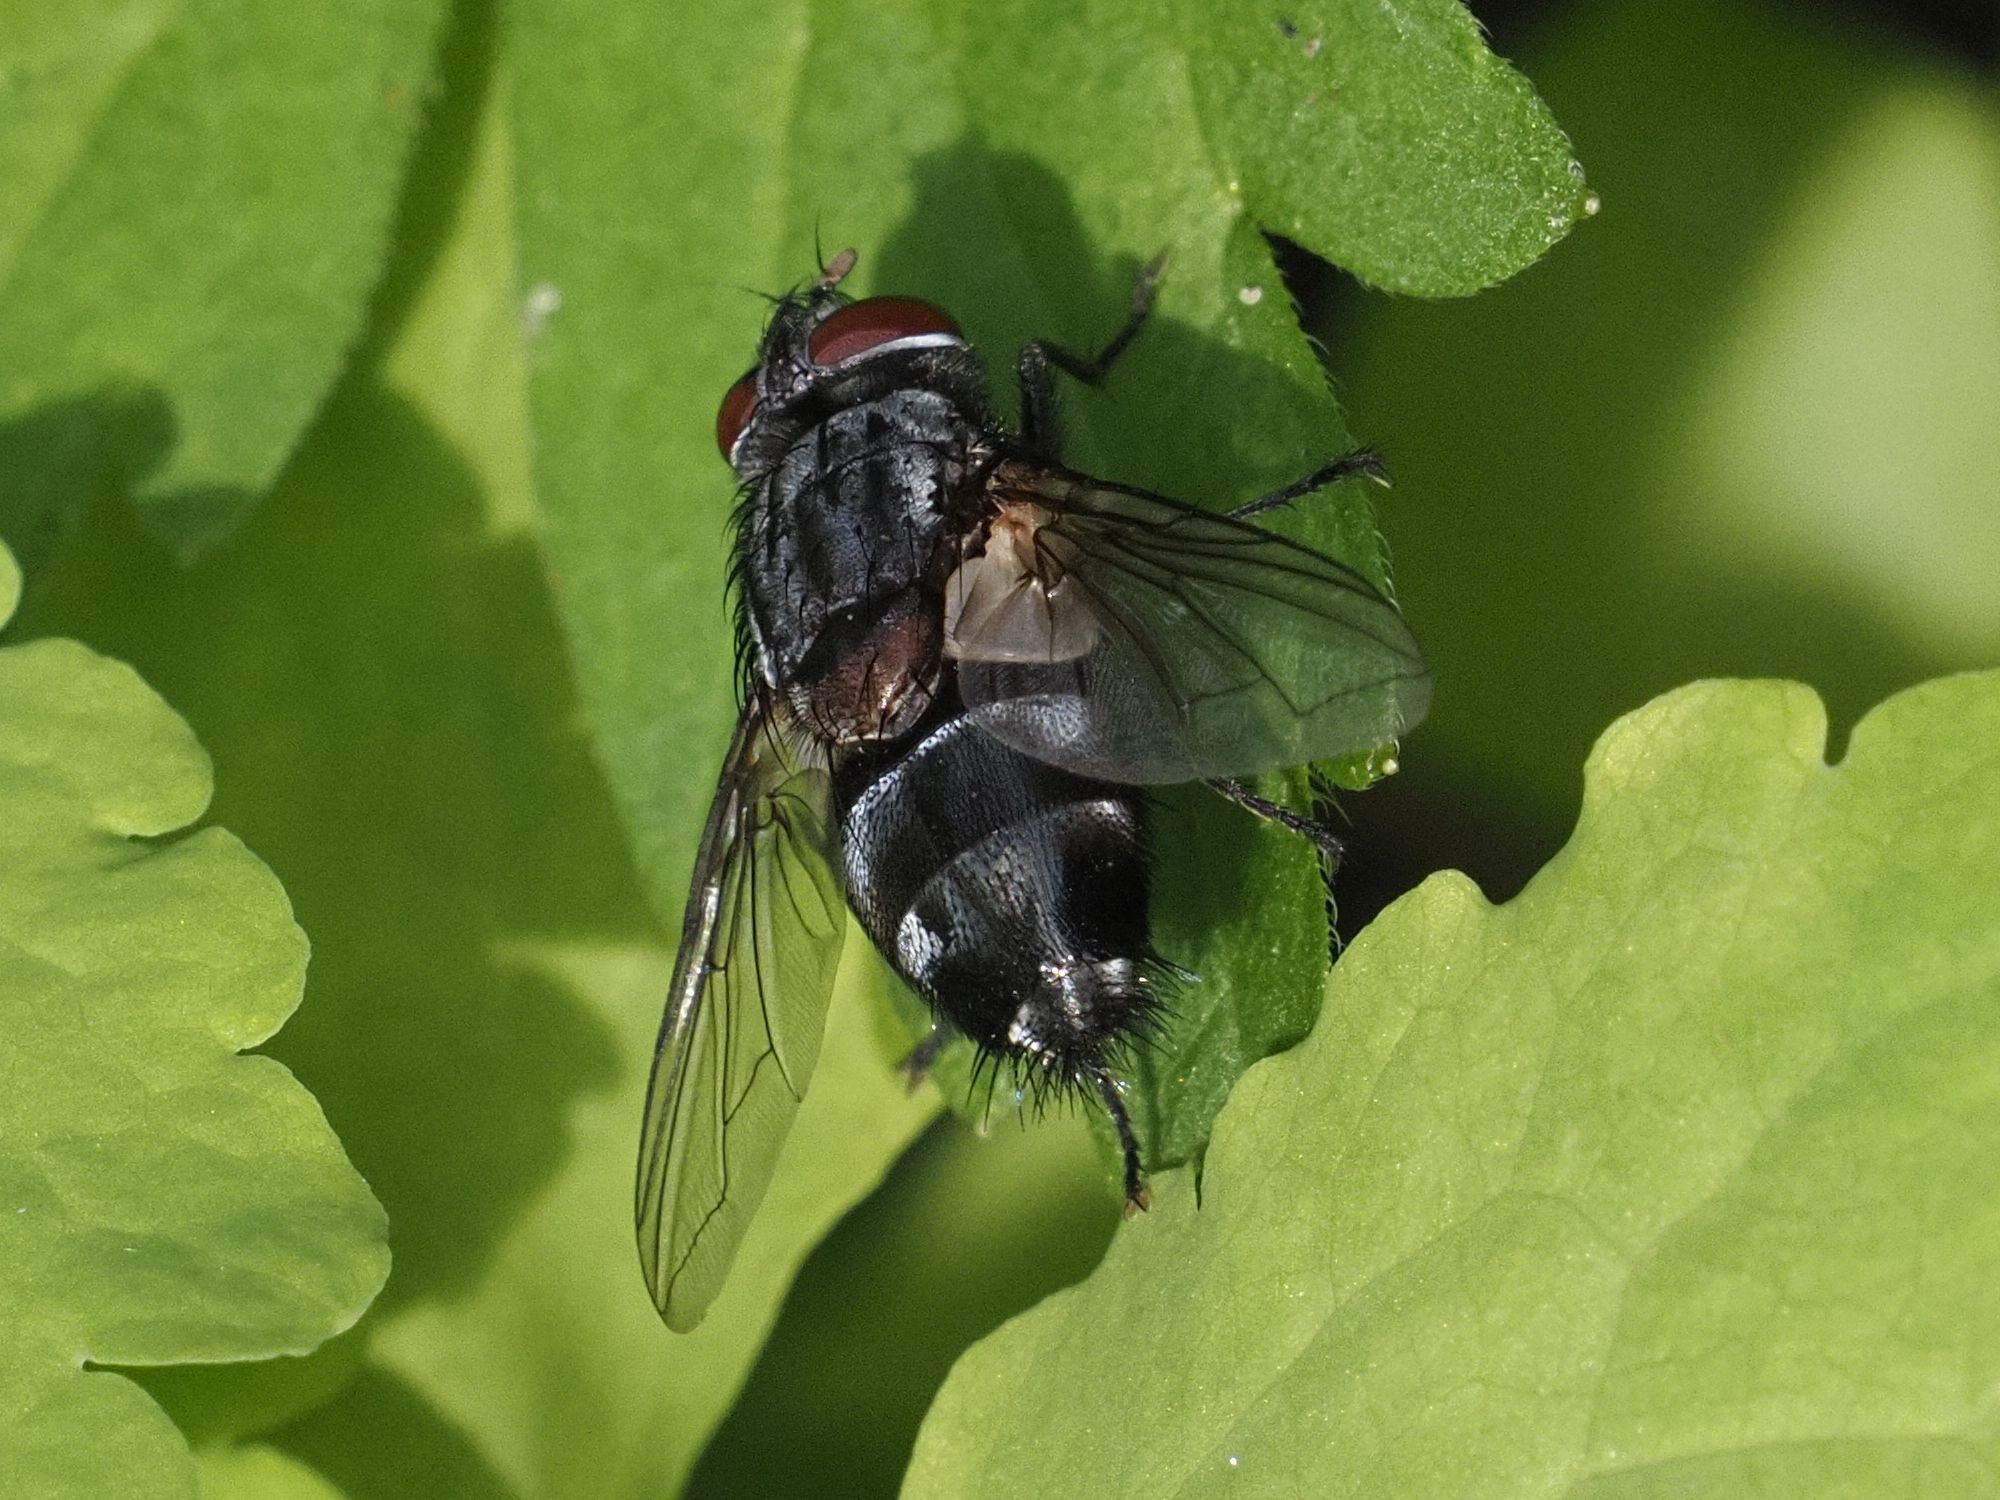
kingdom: Animalia
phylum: Arthropoda
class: Insecta
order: Diptera
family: Tachinidae
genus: Blepharipa
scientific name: Blepharipa pratensis
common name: Parasitic fly
